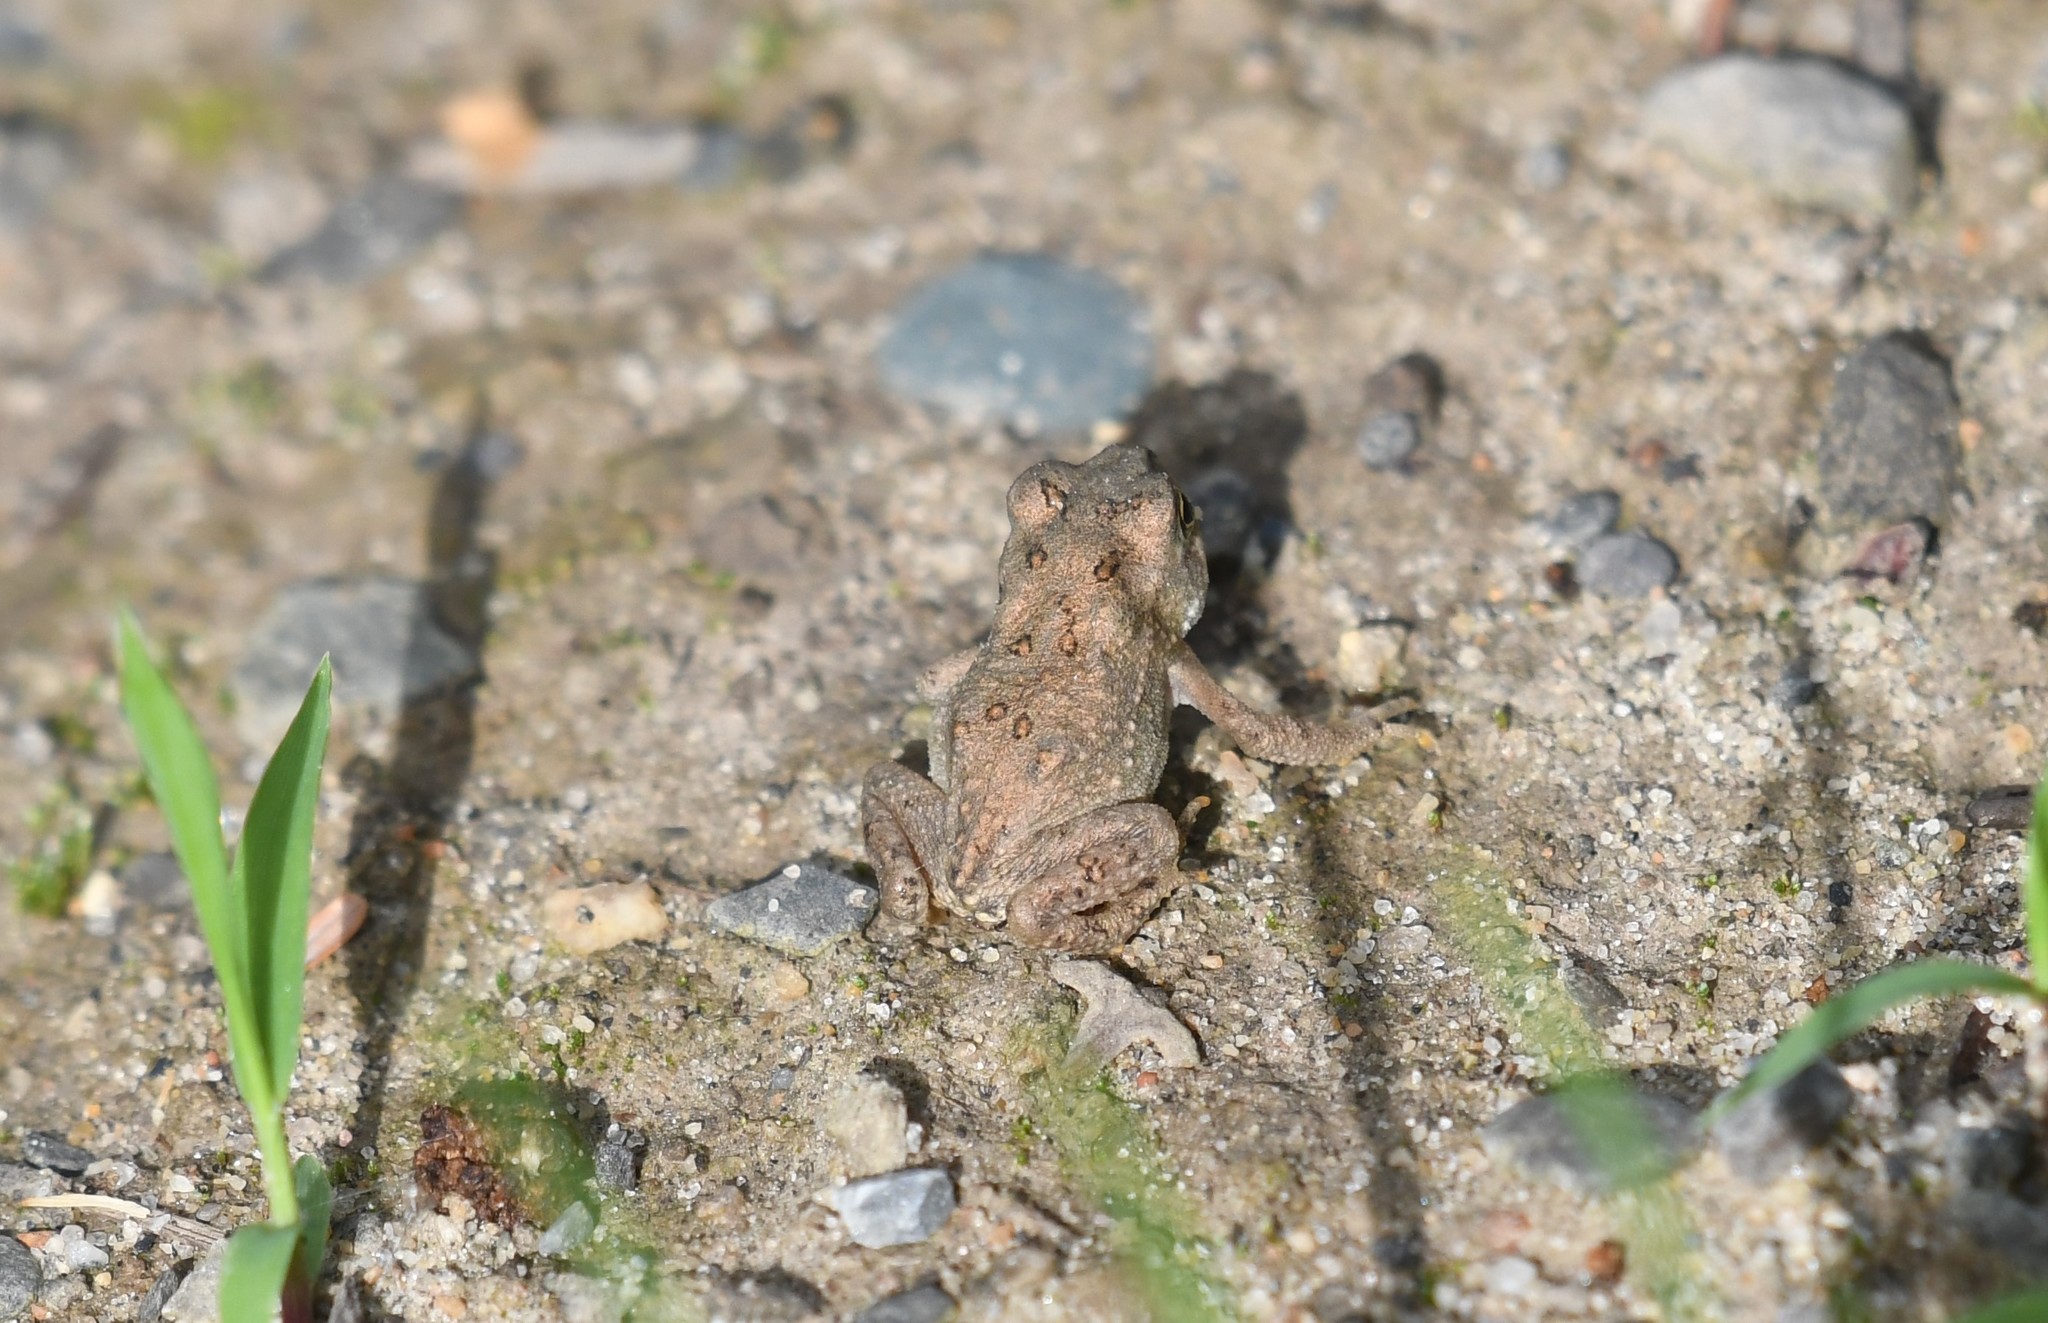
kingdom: Animalia
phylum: Chordata
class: Amphibia
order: Anura
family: Bufonidae
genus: Anaxyrus
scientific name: Anaxyrus americanus
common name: American toad
